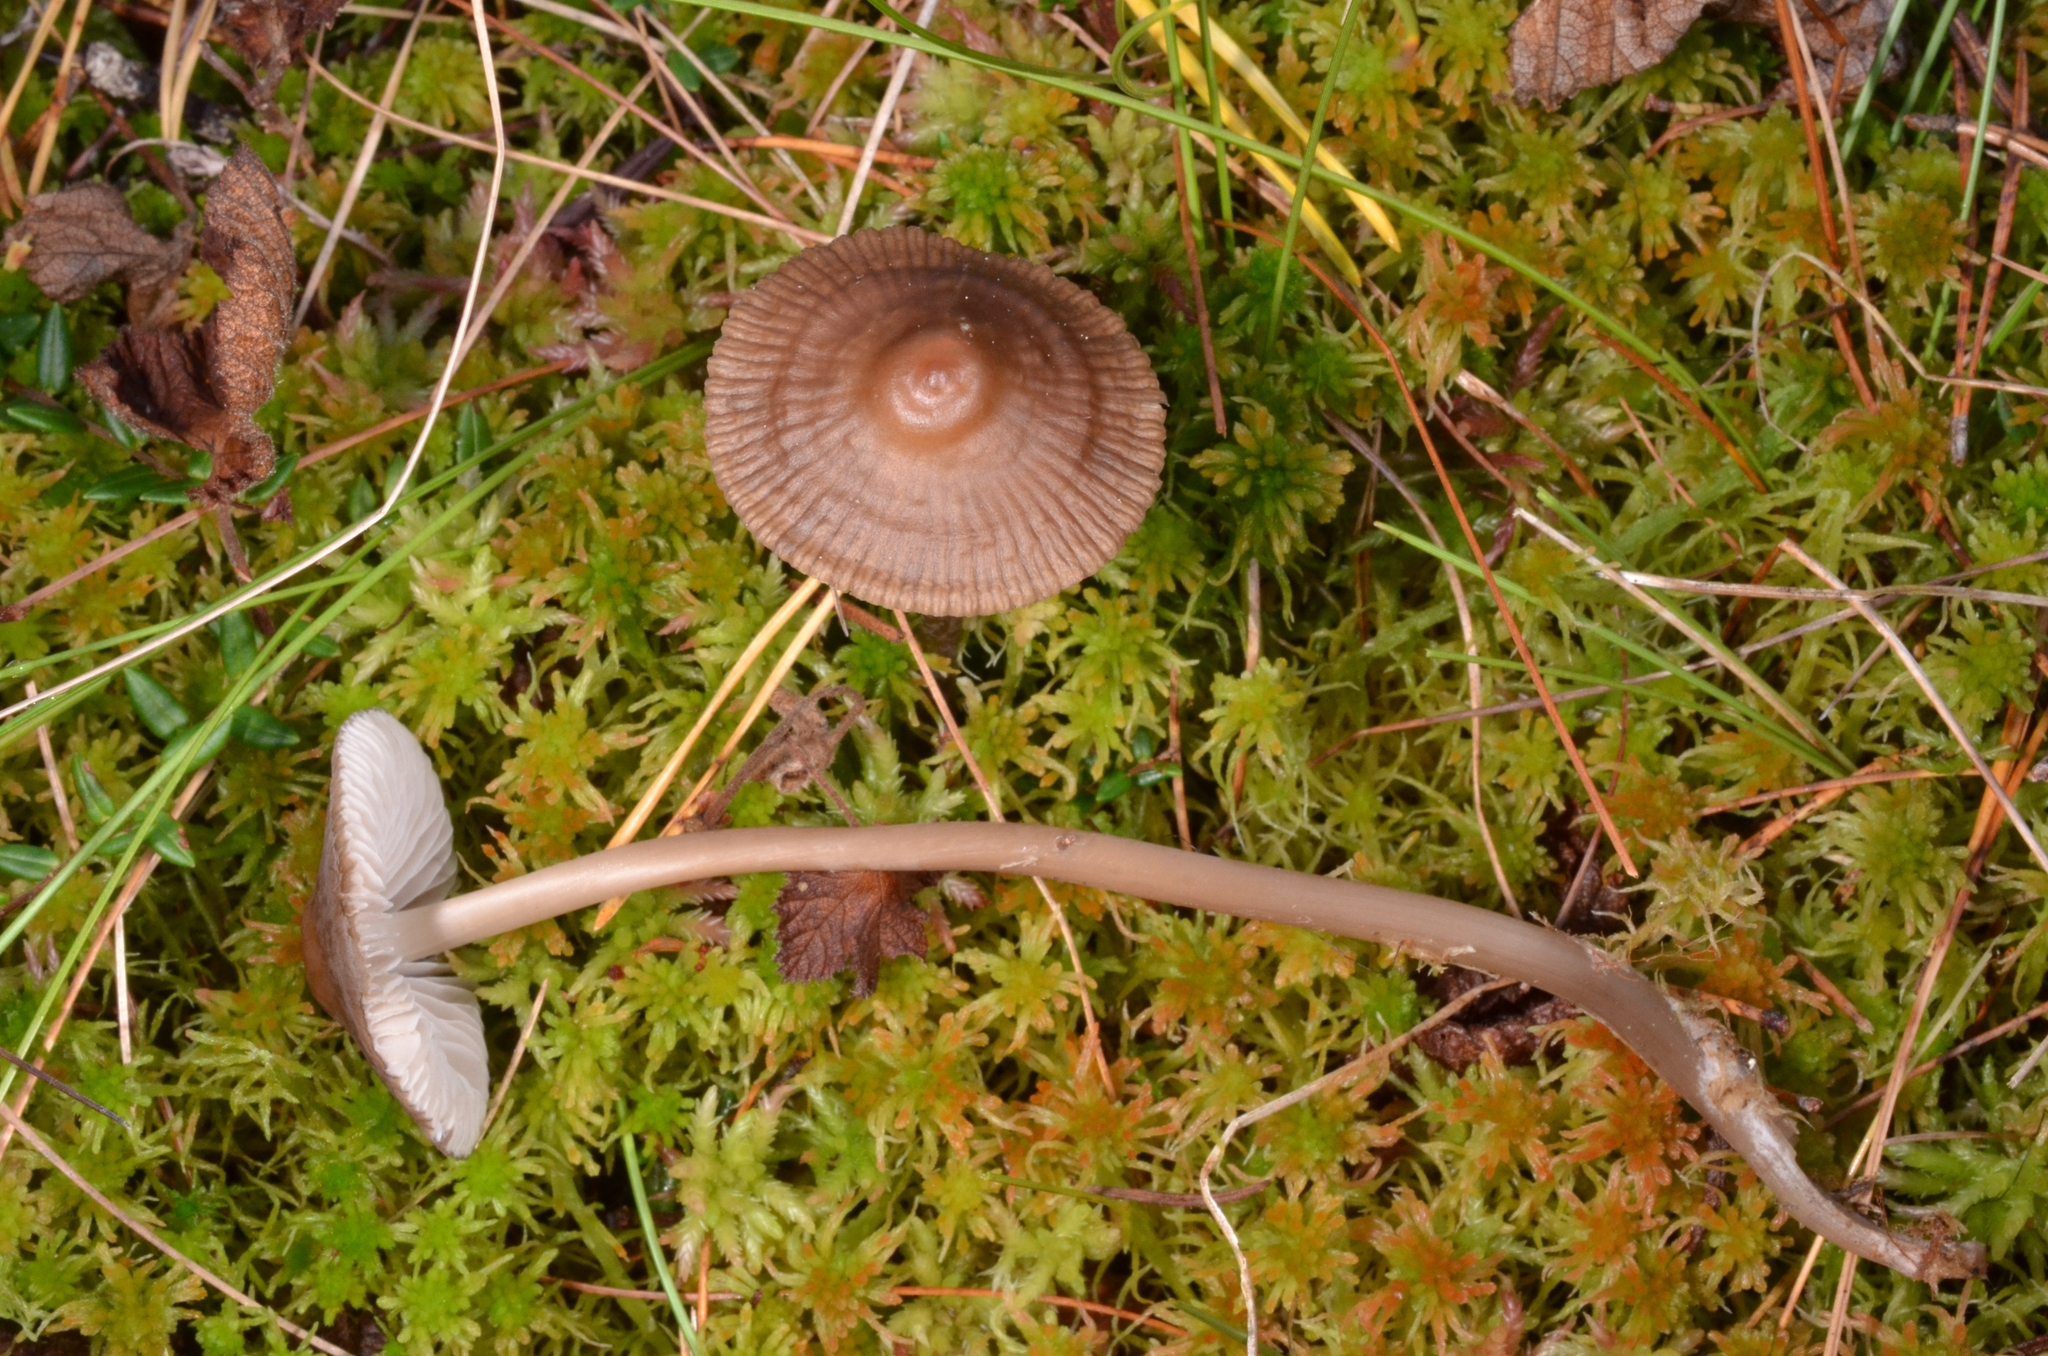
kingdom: Fungi
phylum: Basidiomycota
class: Agaricomycetes
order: Agaricales
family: Mycenaceae
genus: Mycena
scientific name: Mycena megaspora
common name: Rooting bonnet
